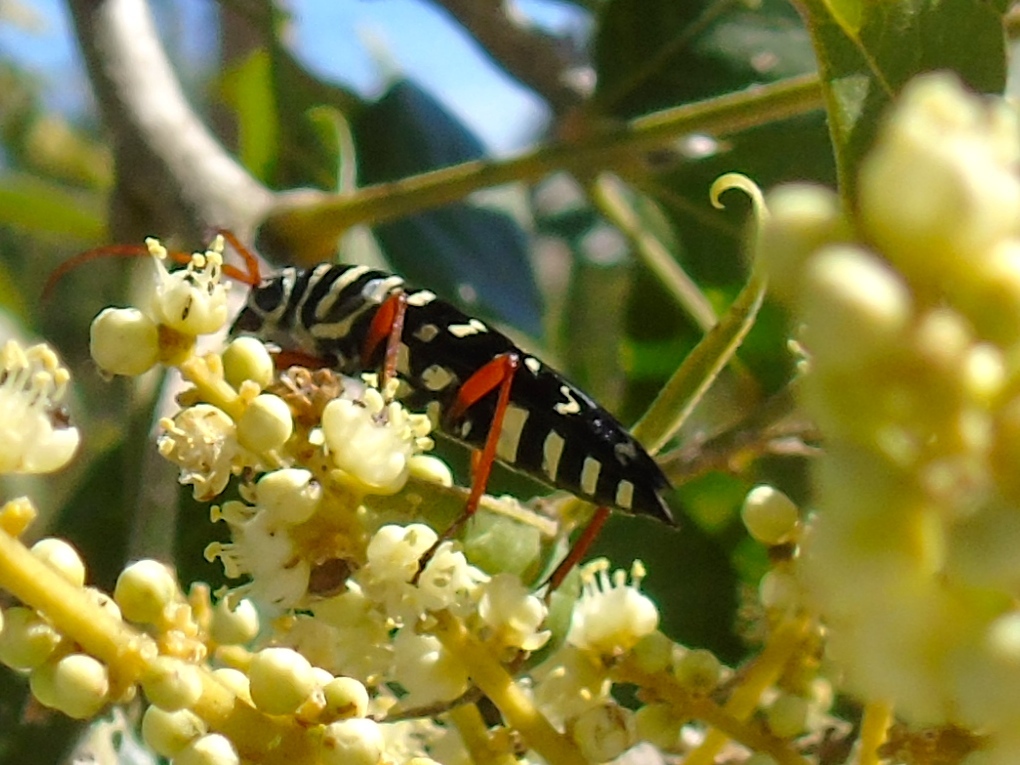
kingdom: Animalia
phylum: Arthropoda
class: Insecta
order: Coleoptera
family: Cerambycidae
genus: Placosternus
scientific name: Placosternus erythropus
